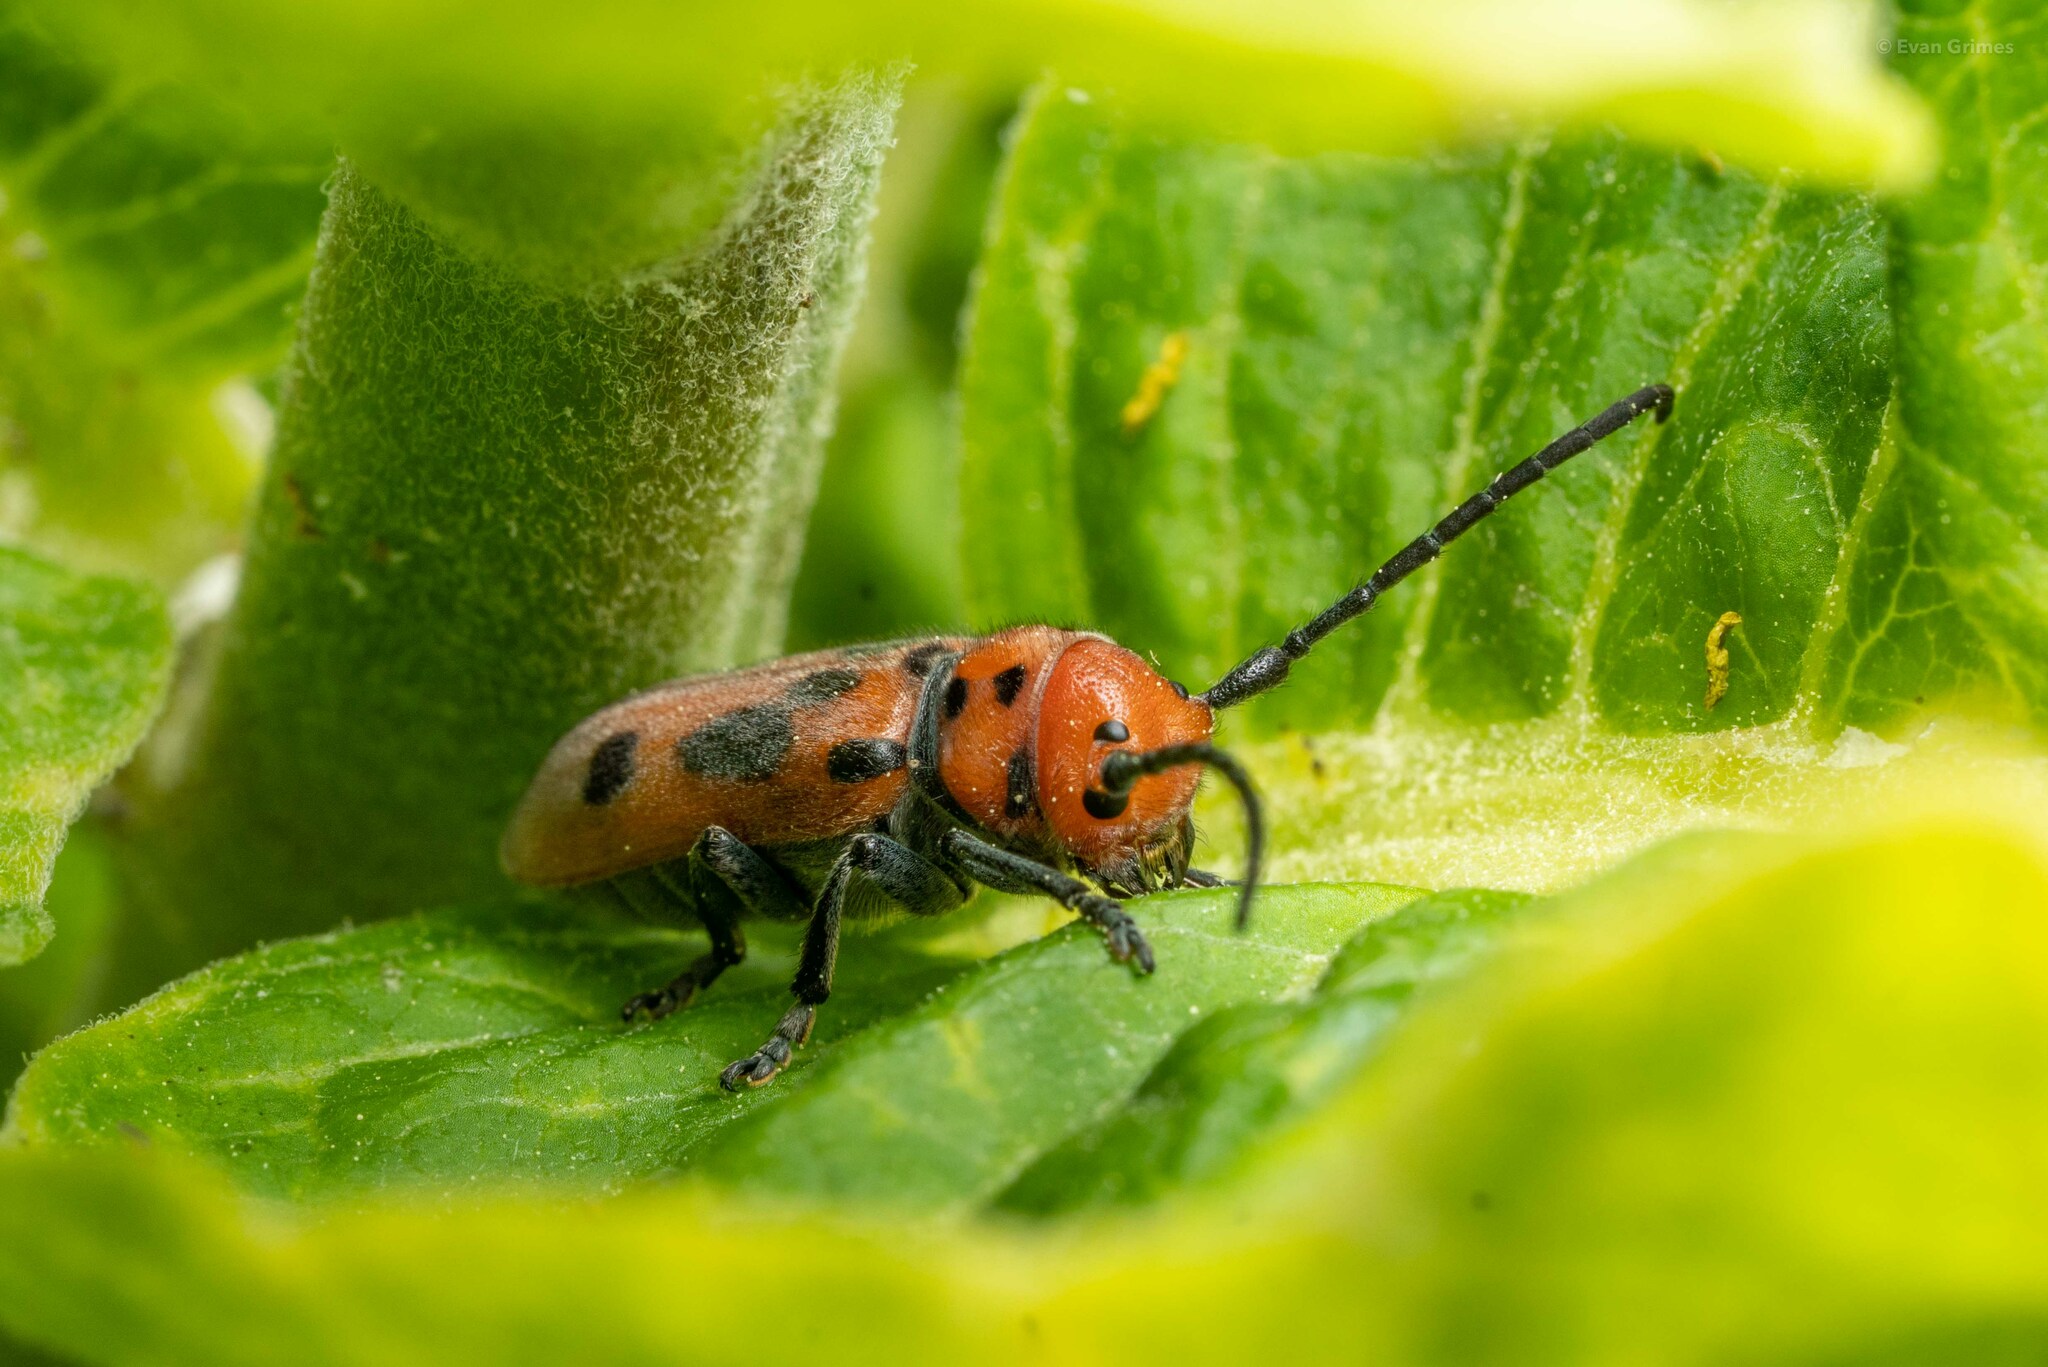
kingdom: Animalia
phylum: Arthropoda
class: Insecta
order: Coleoptera
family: Cerambycidae
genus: Tetraopes
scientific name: Tetraopes tetrophthalmus
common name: Red milkweed beetle
